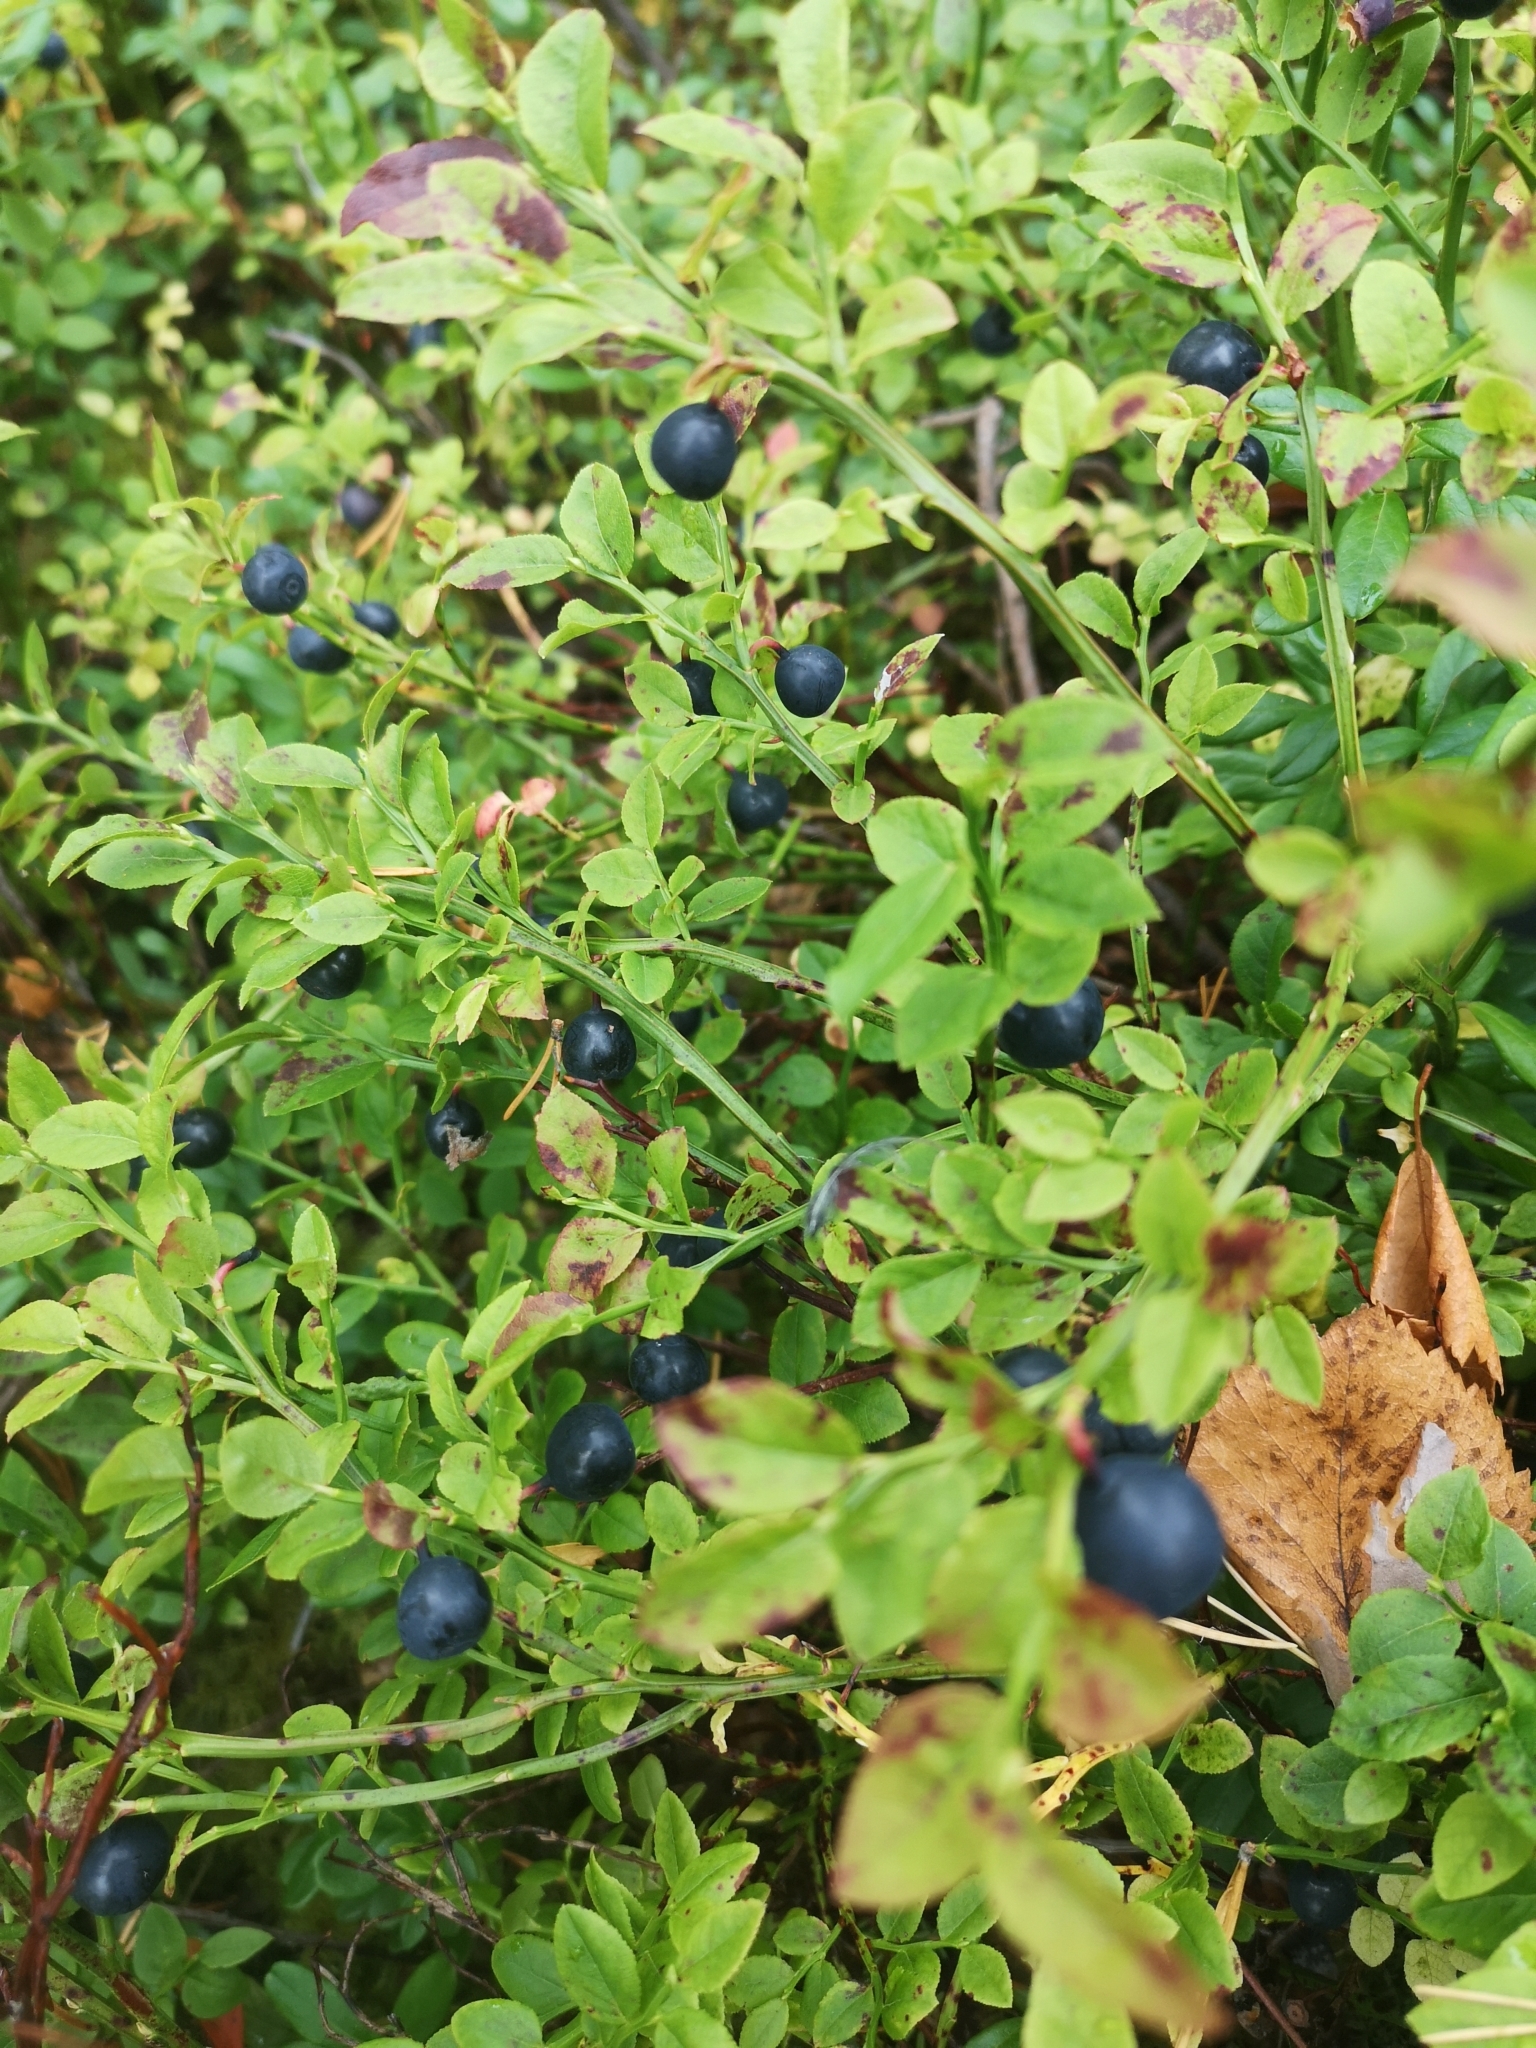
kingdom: Plantae
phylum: Tracheophyta
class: Magnoliopsida
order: Ericales
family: Ericaceae
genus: Vaccinium
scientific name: Vaccinium myrtillus
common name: Bilberry
